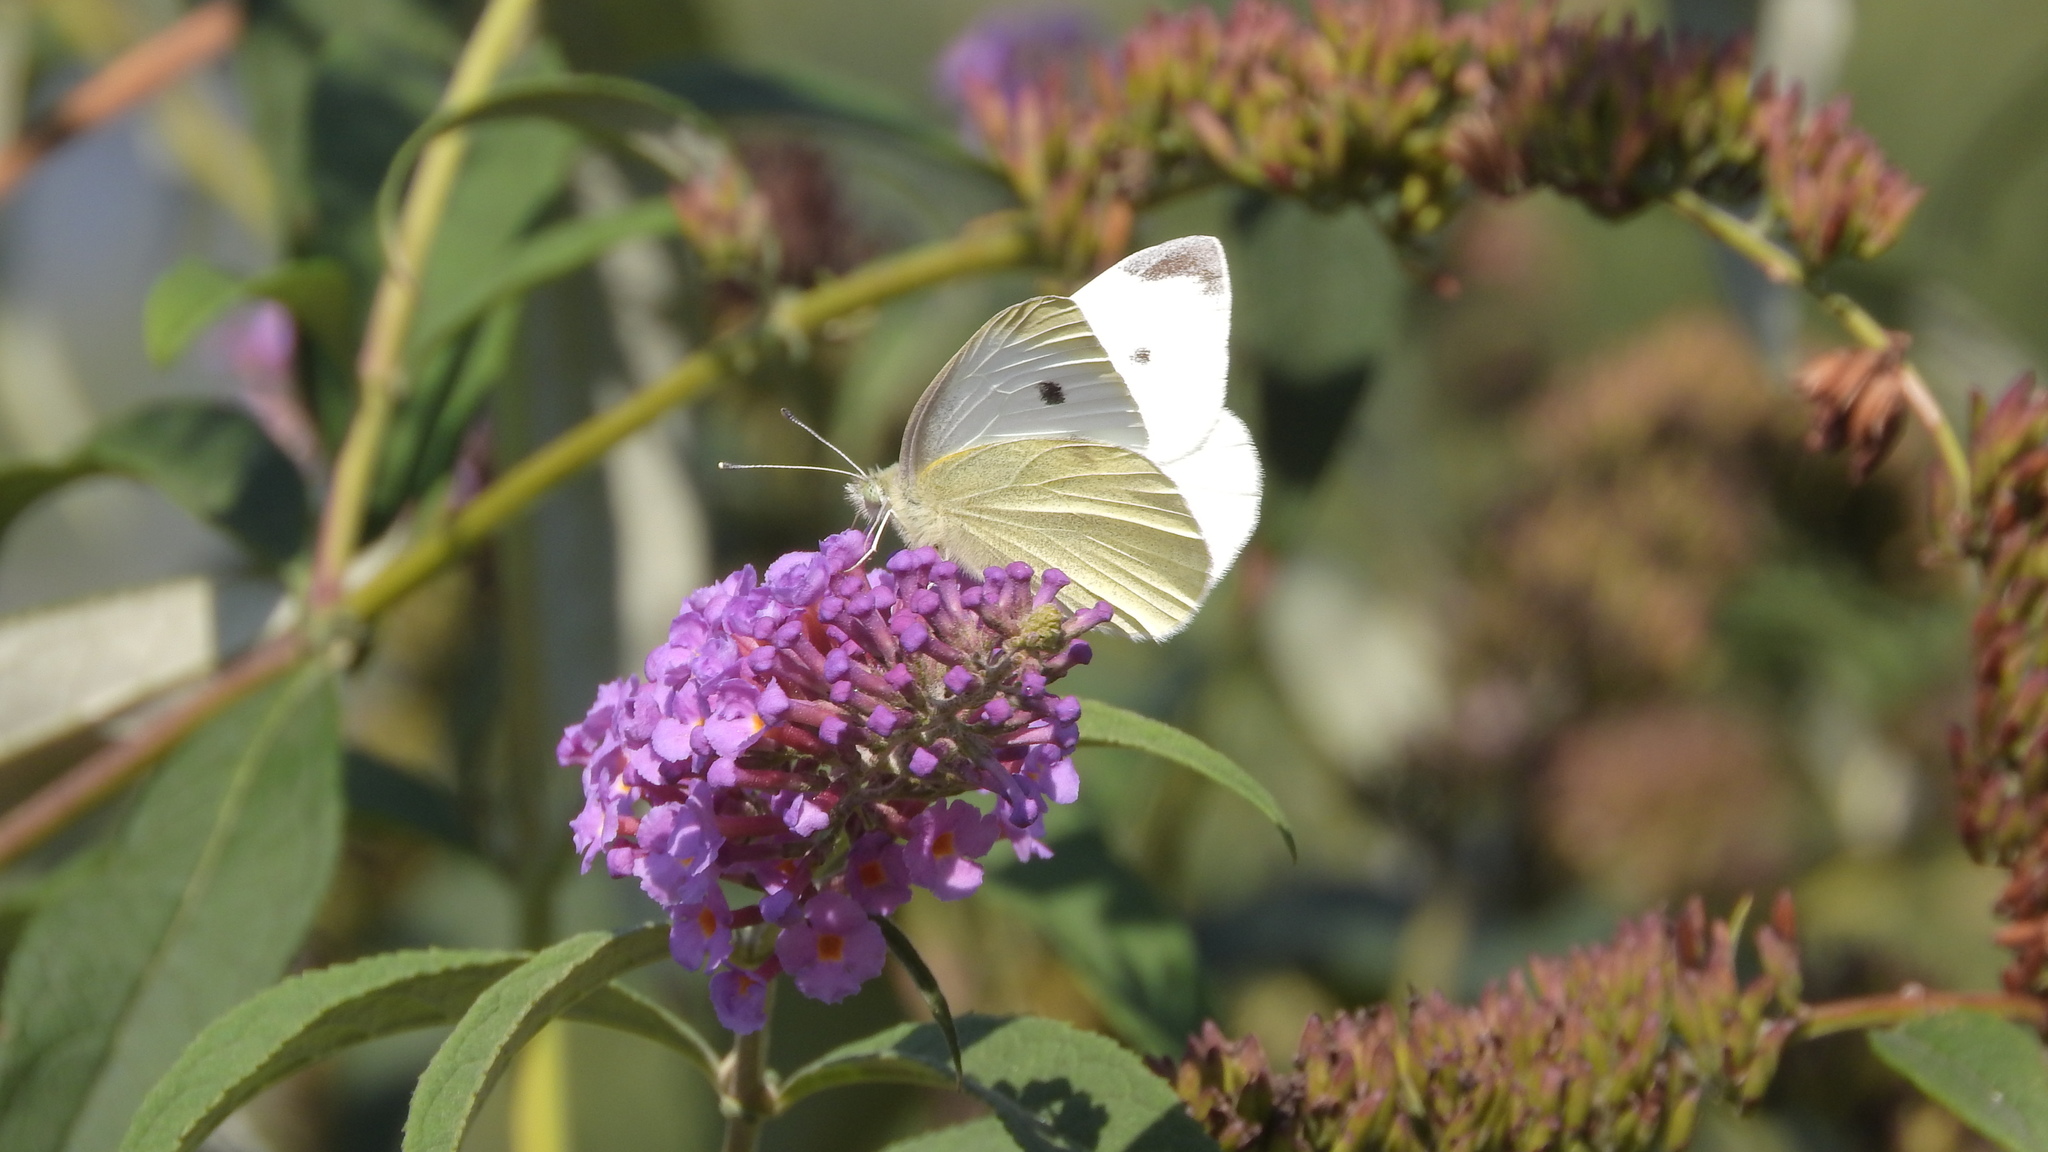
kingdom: Animalia
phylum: Arthropoda
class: Insecta
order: Lepidoptera
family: Pieridae
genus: Pieris
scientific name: Pieris rapae
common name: Small white
